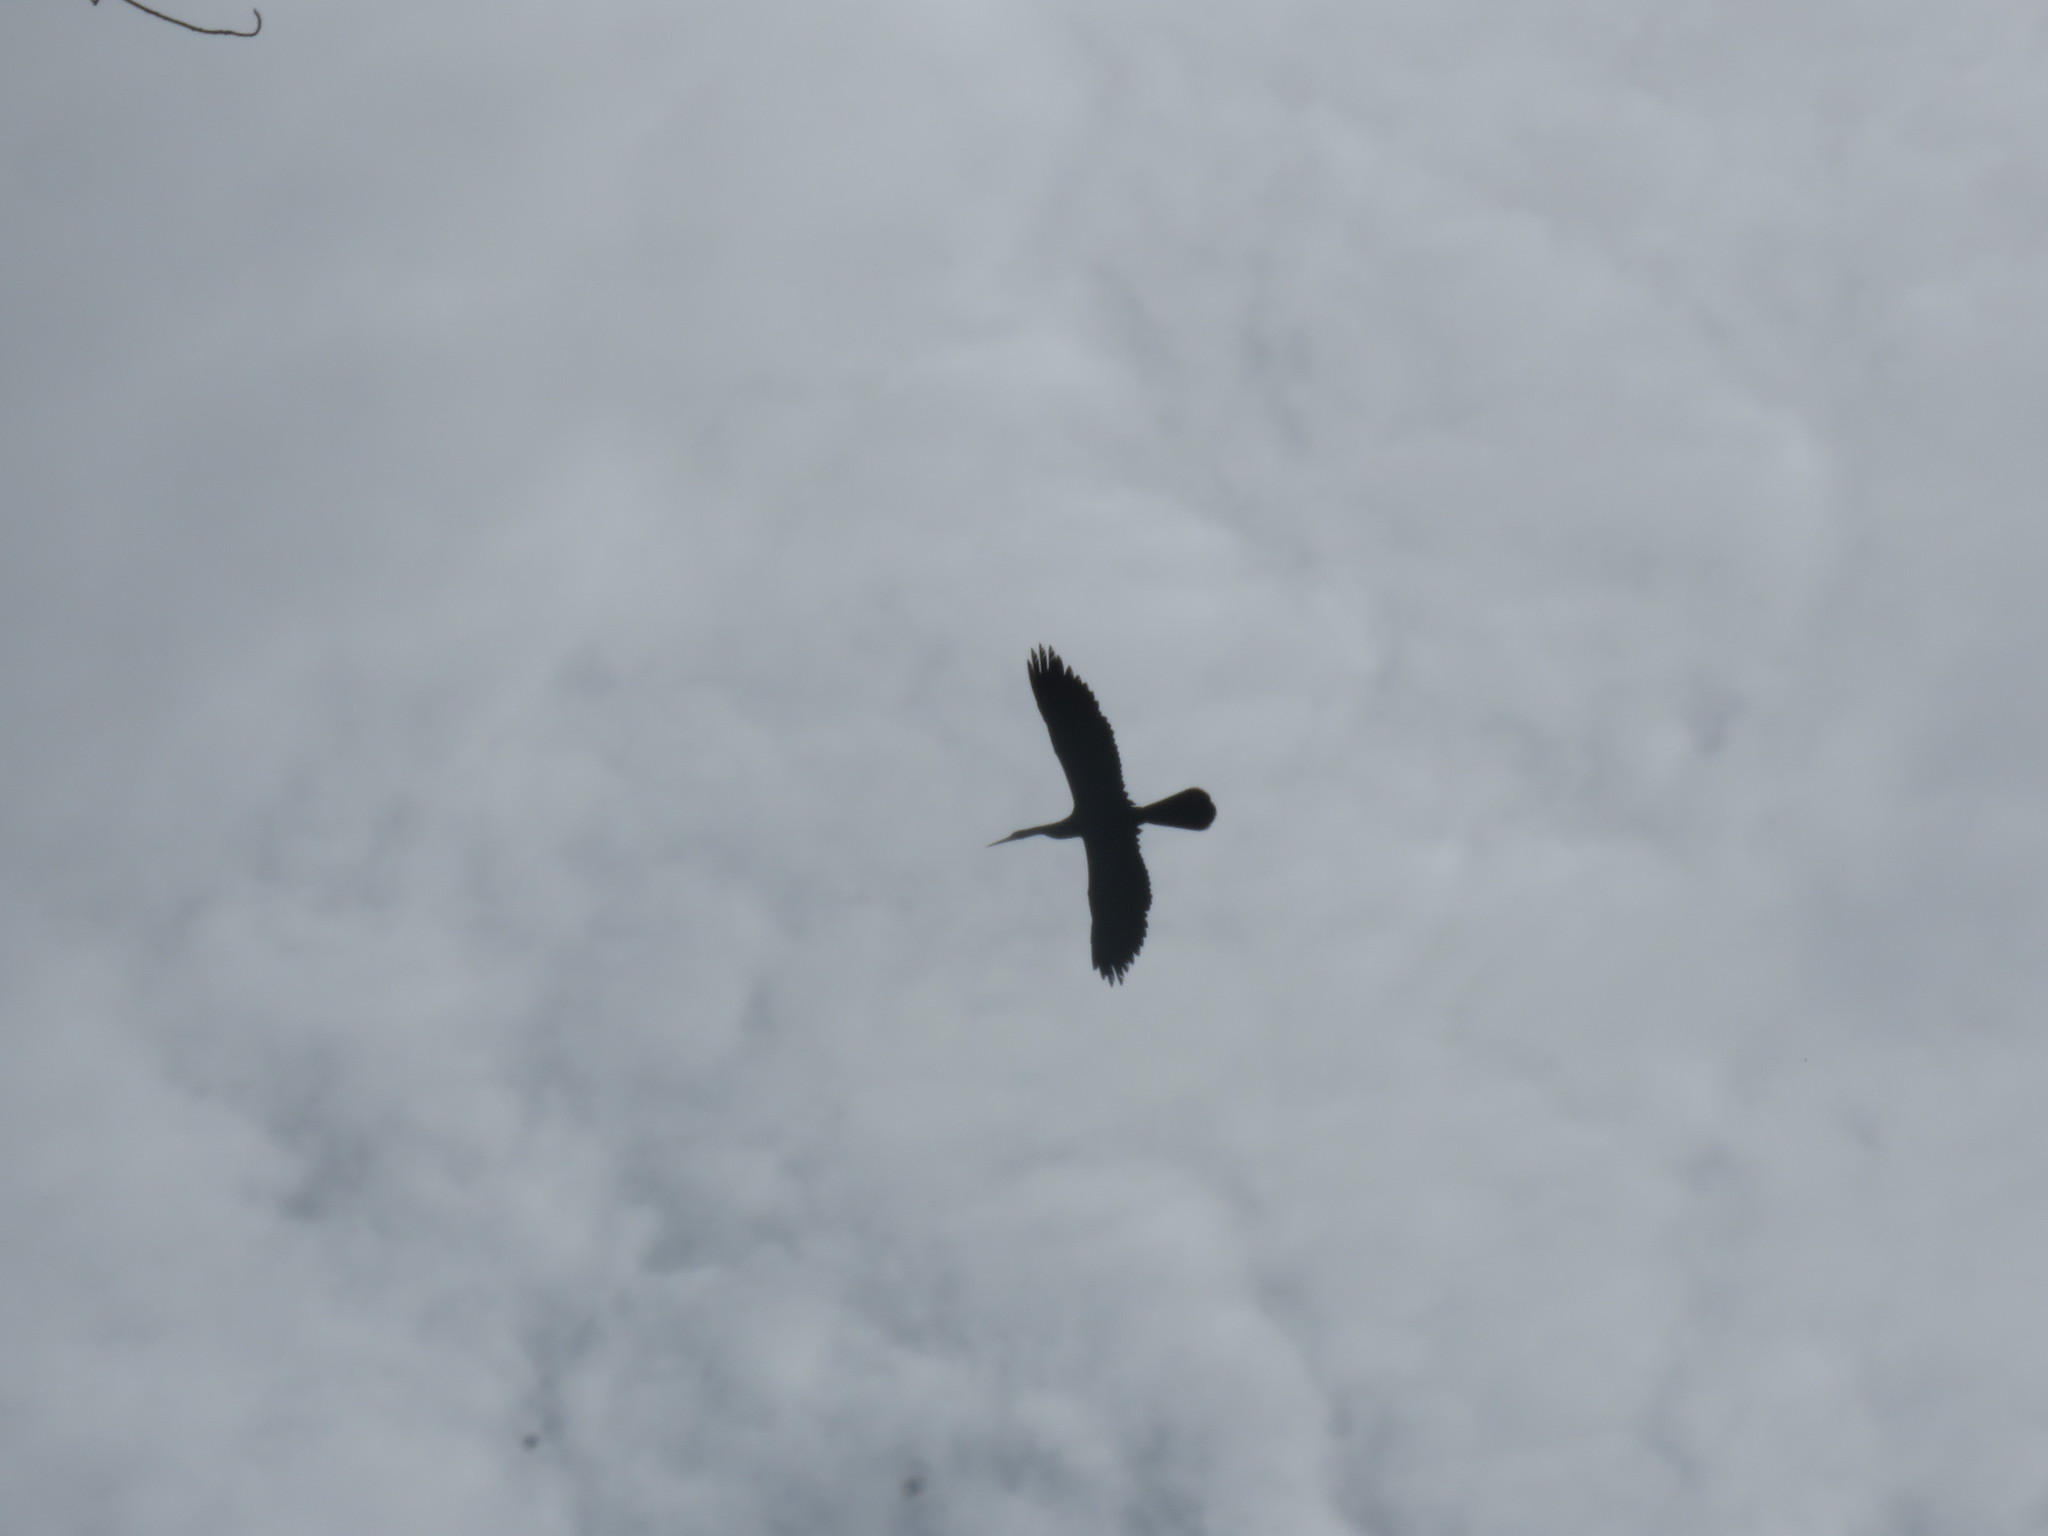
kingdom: Animalia
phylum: Chordata
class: Aves
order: Suliformes
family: Anhingidae
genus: Anhinga
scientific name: Anhinga anhinga
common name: Anhinga
